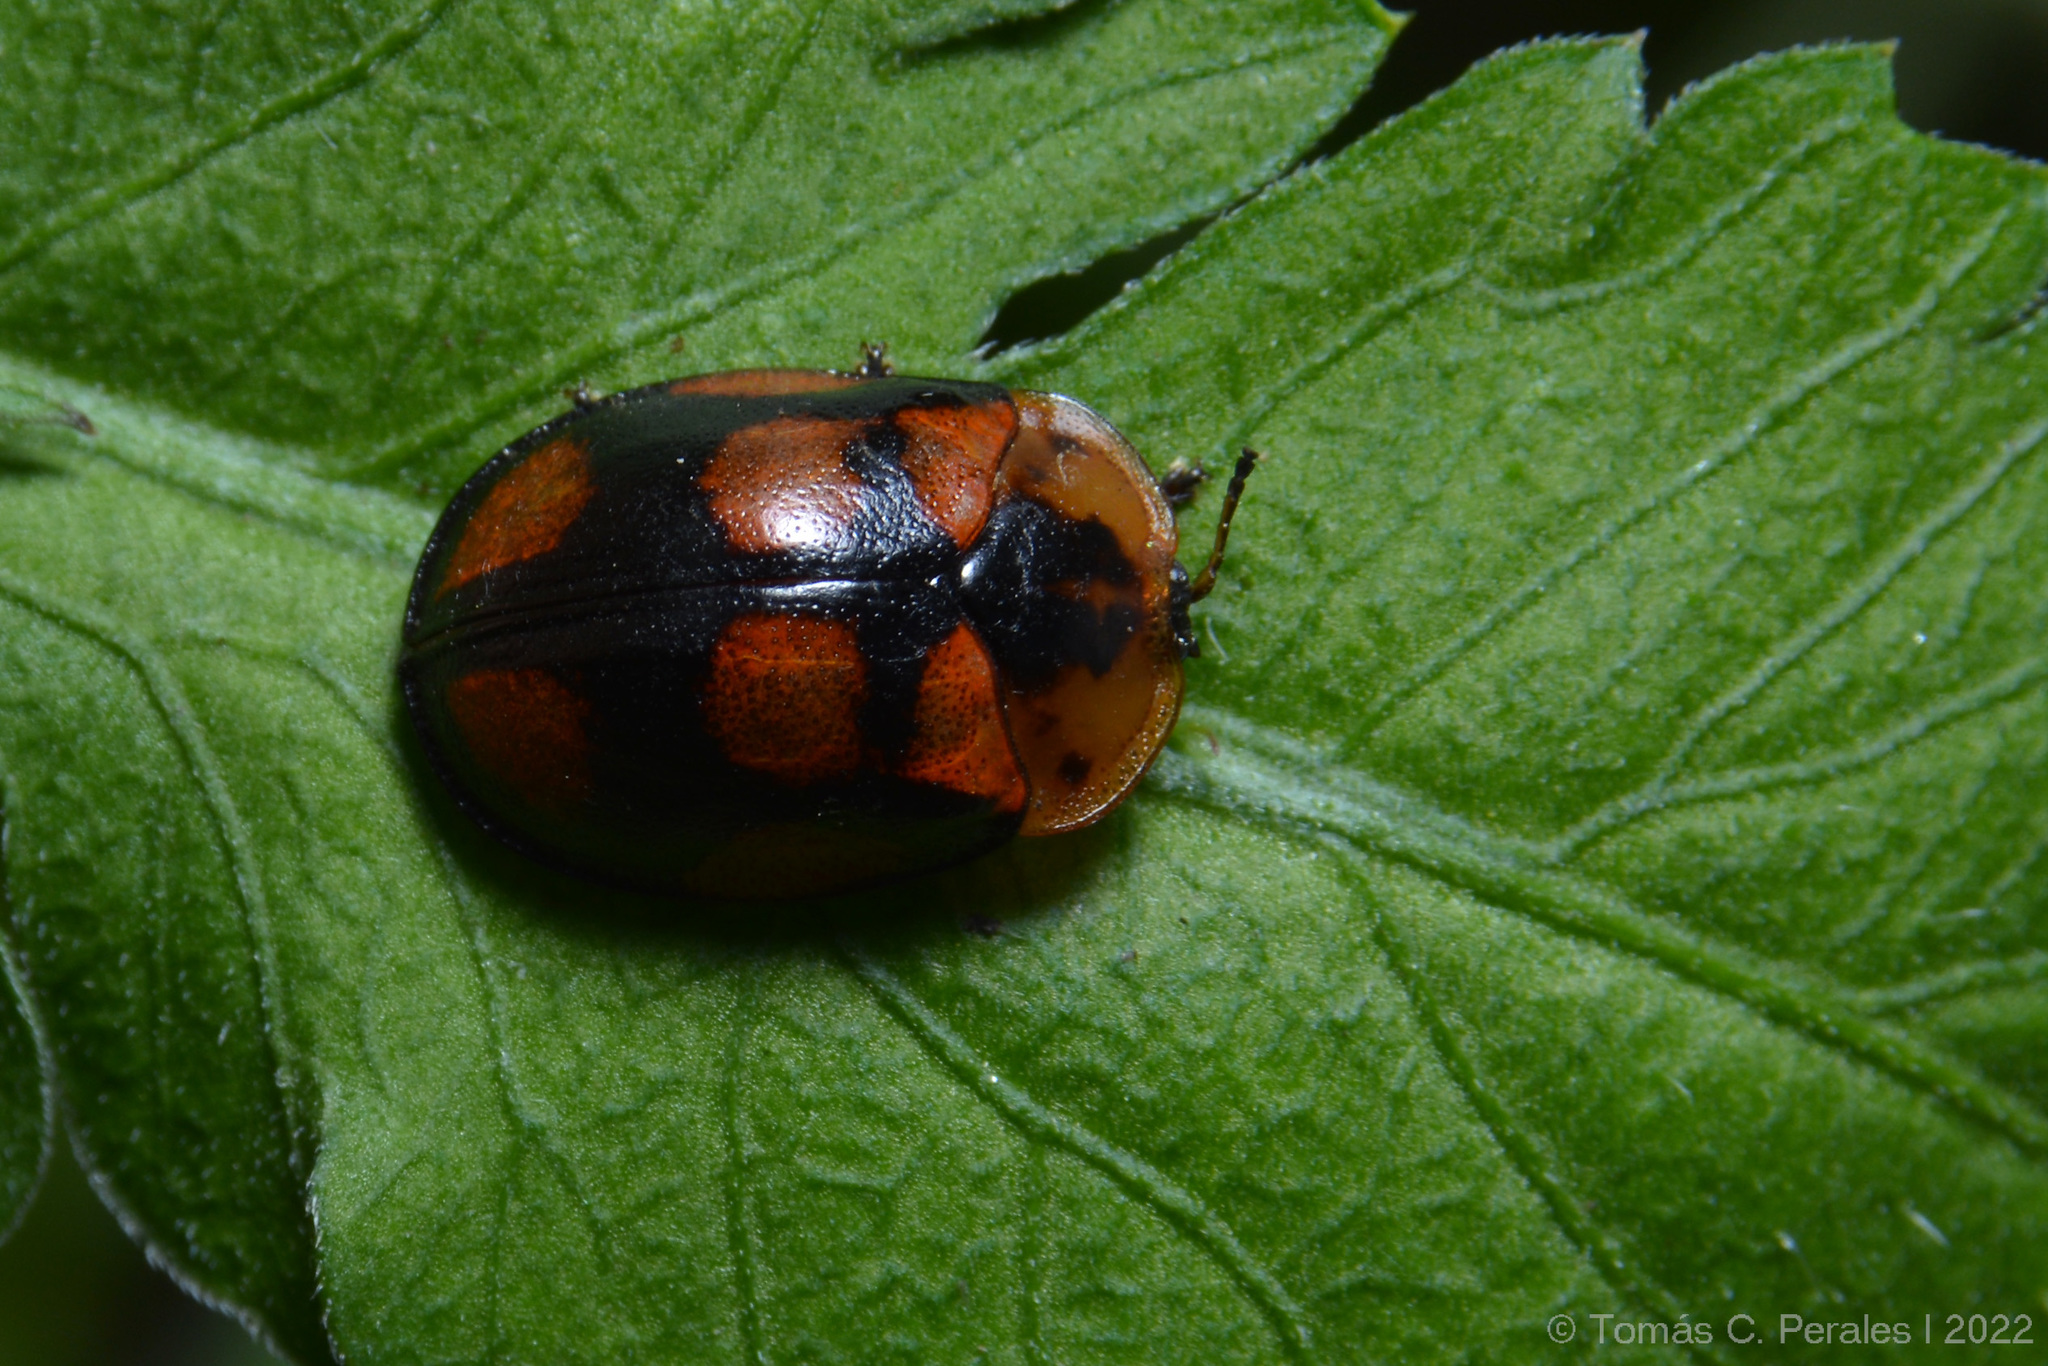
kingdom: Animalia
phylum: Arthropoda
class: Insecta
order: Coleoptera
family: Chrysomelidae
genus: Chelymorpha
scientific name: Chelymorpha areata
